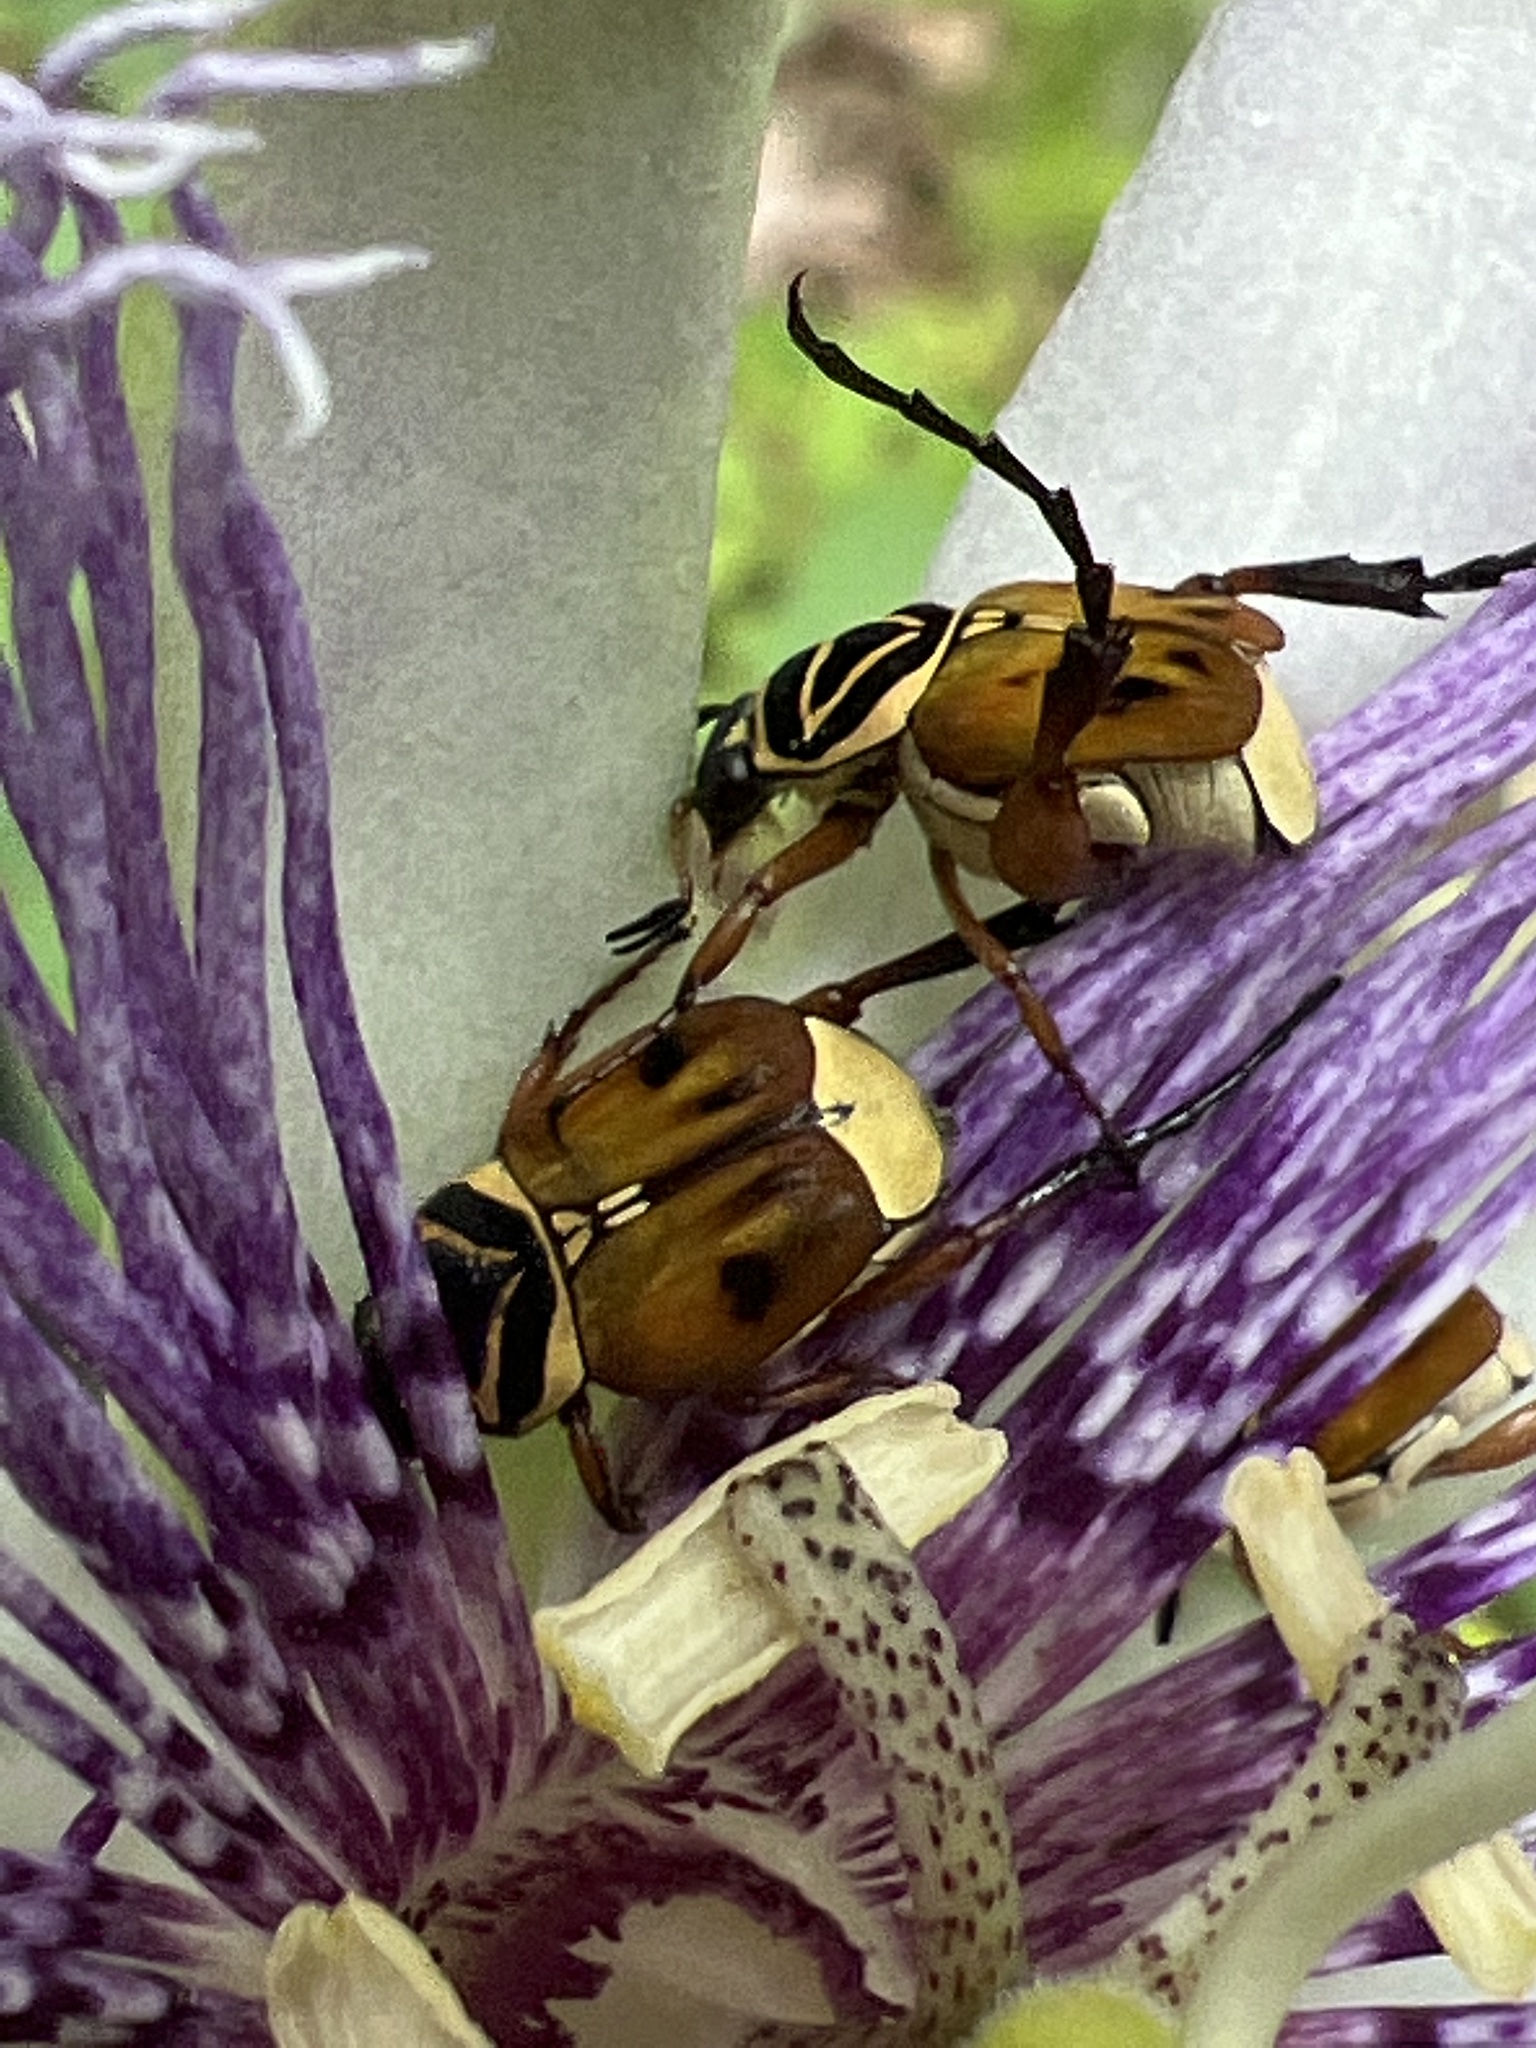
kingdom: Animalia
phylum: Arthropoda
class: Insecta
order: Coleoptera
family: Scarabaeidae
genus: Trigonopeltastes
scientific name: Trigonopeltastes delta
